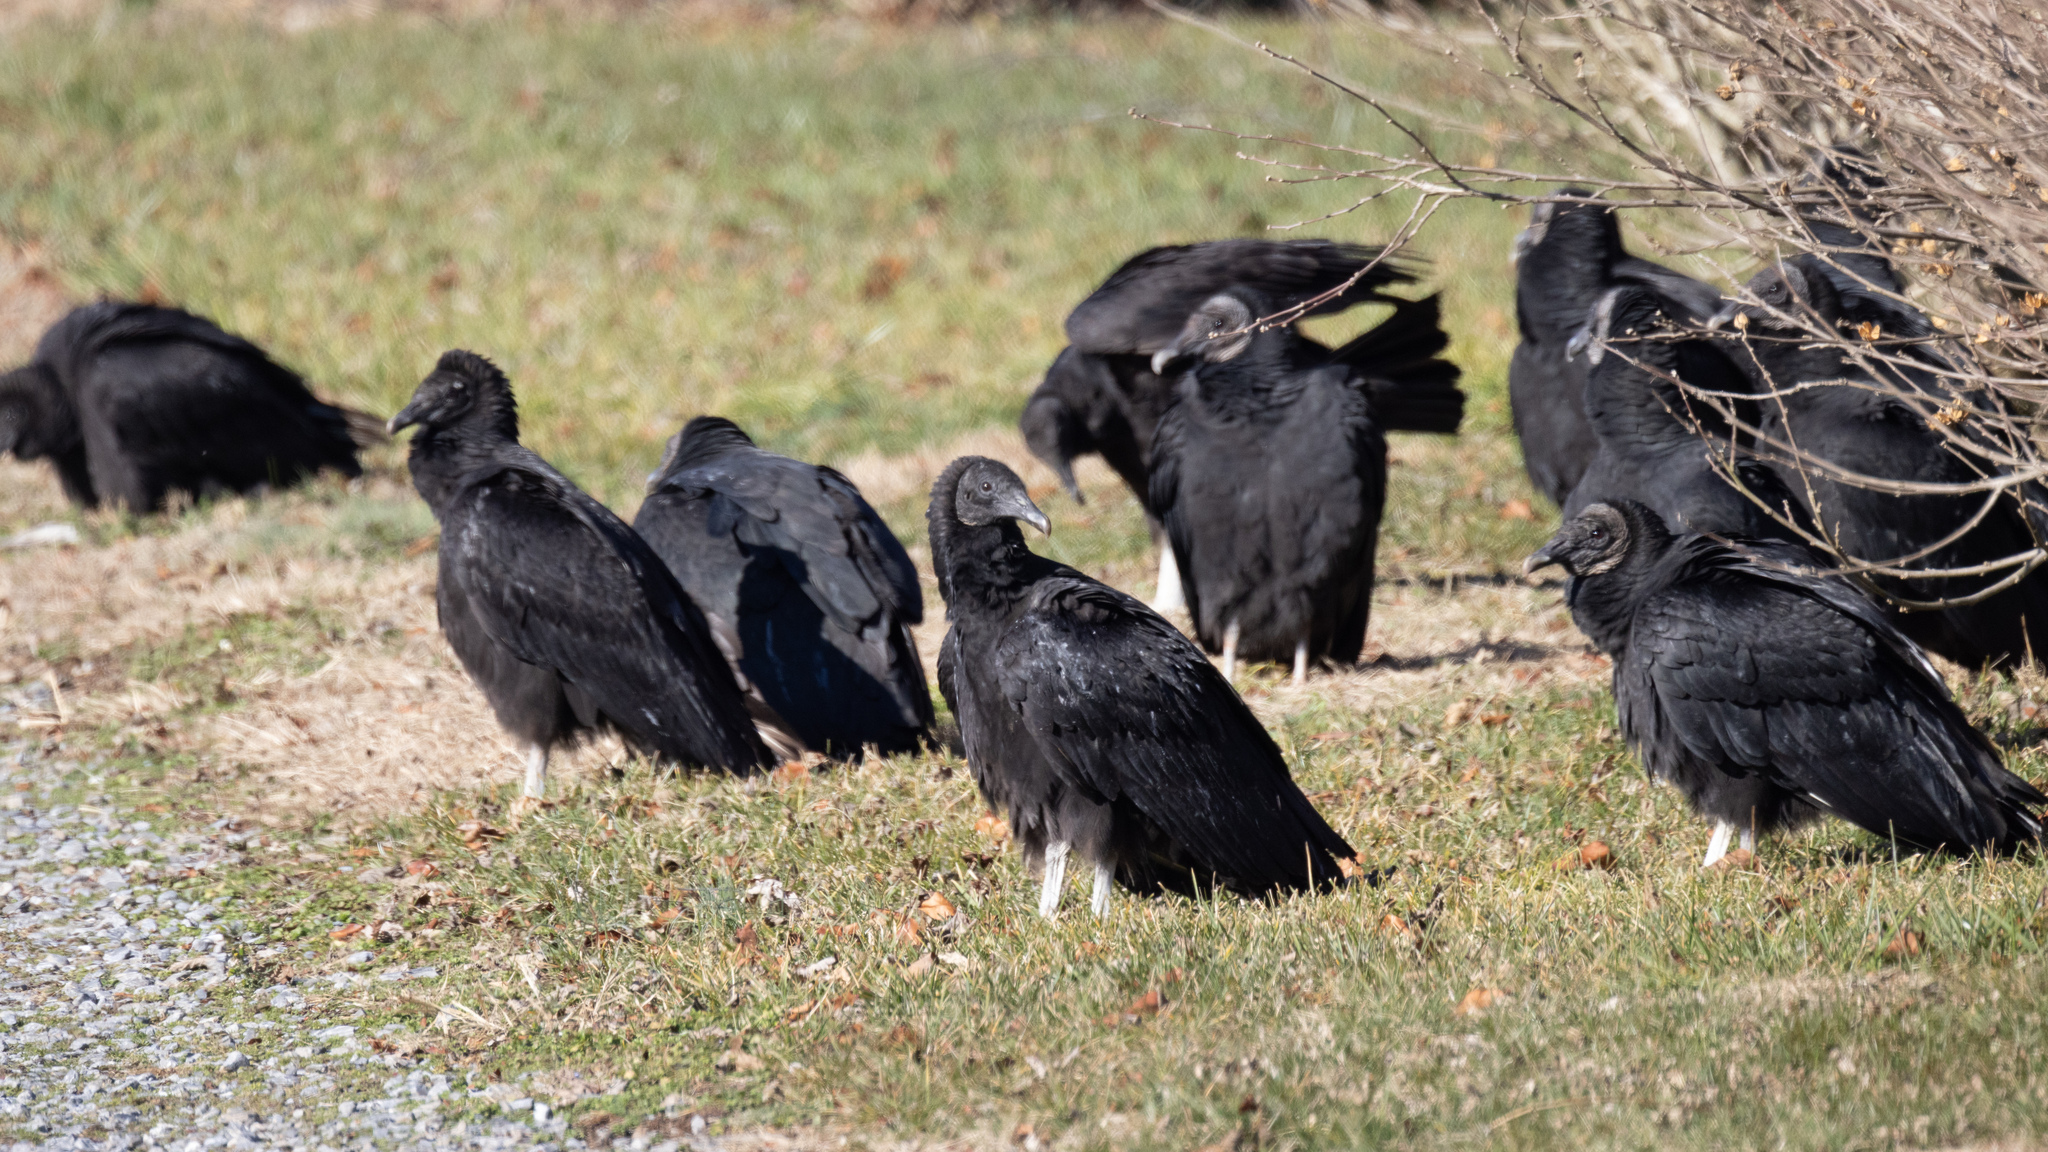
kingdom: Animalia
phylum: Chordata
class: Aves
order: Accipitriformes
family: Cathartidae
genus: Coragyps
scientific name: Coragyps atratus
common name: Black vulture
